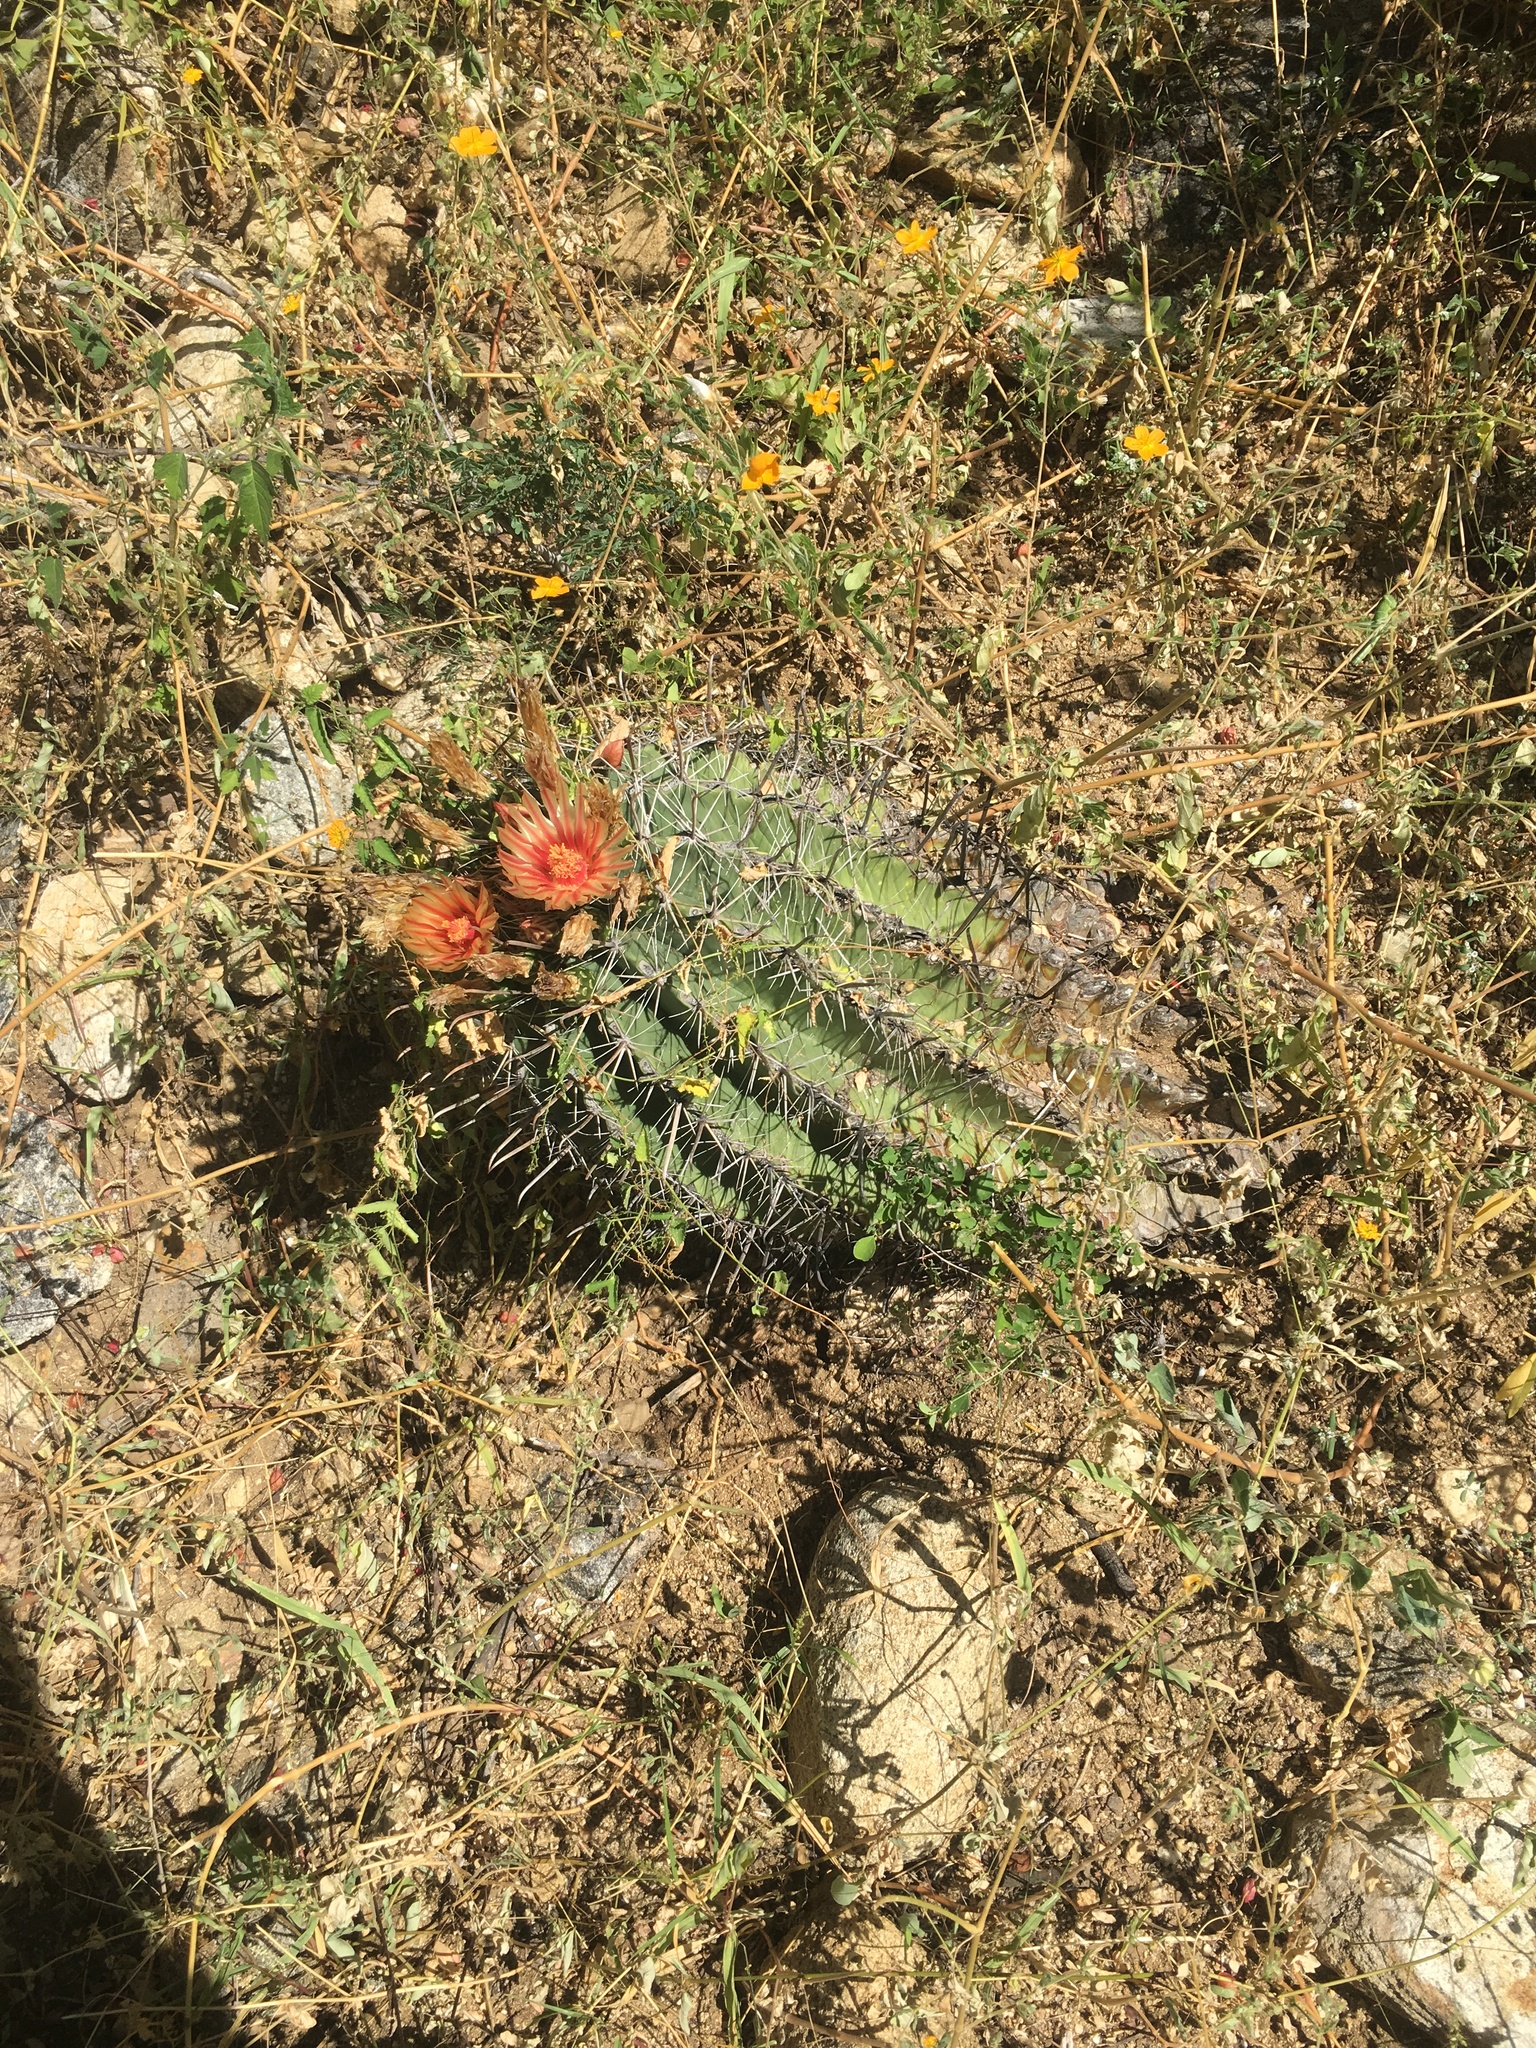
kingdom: Plantae
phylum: Tracheophyta
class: Magnoliopsida
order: Caryophyllales
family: Cactaceae
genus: Ferocactus
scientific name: Ferocactus townsendianus
